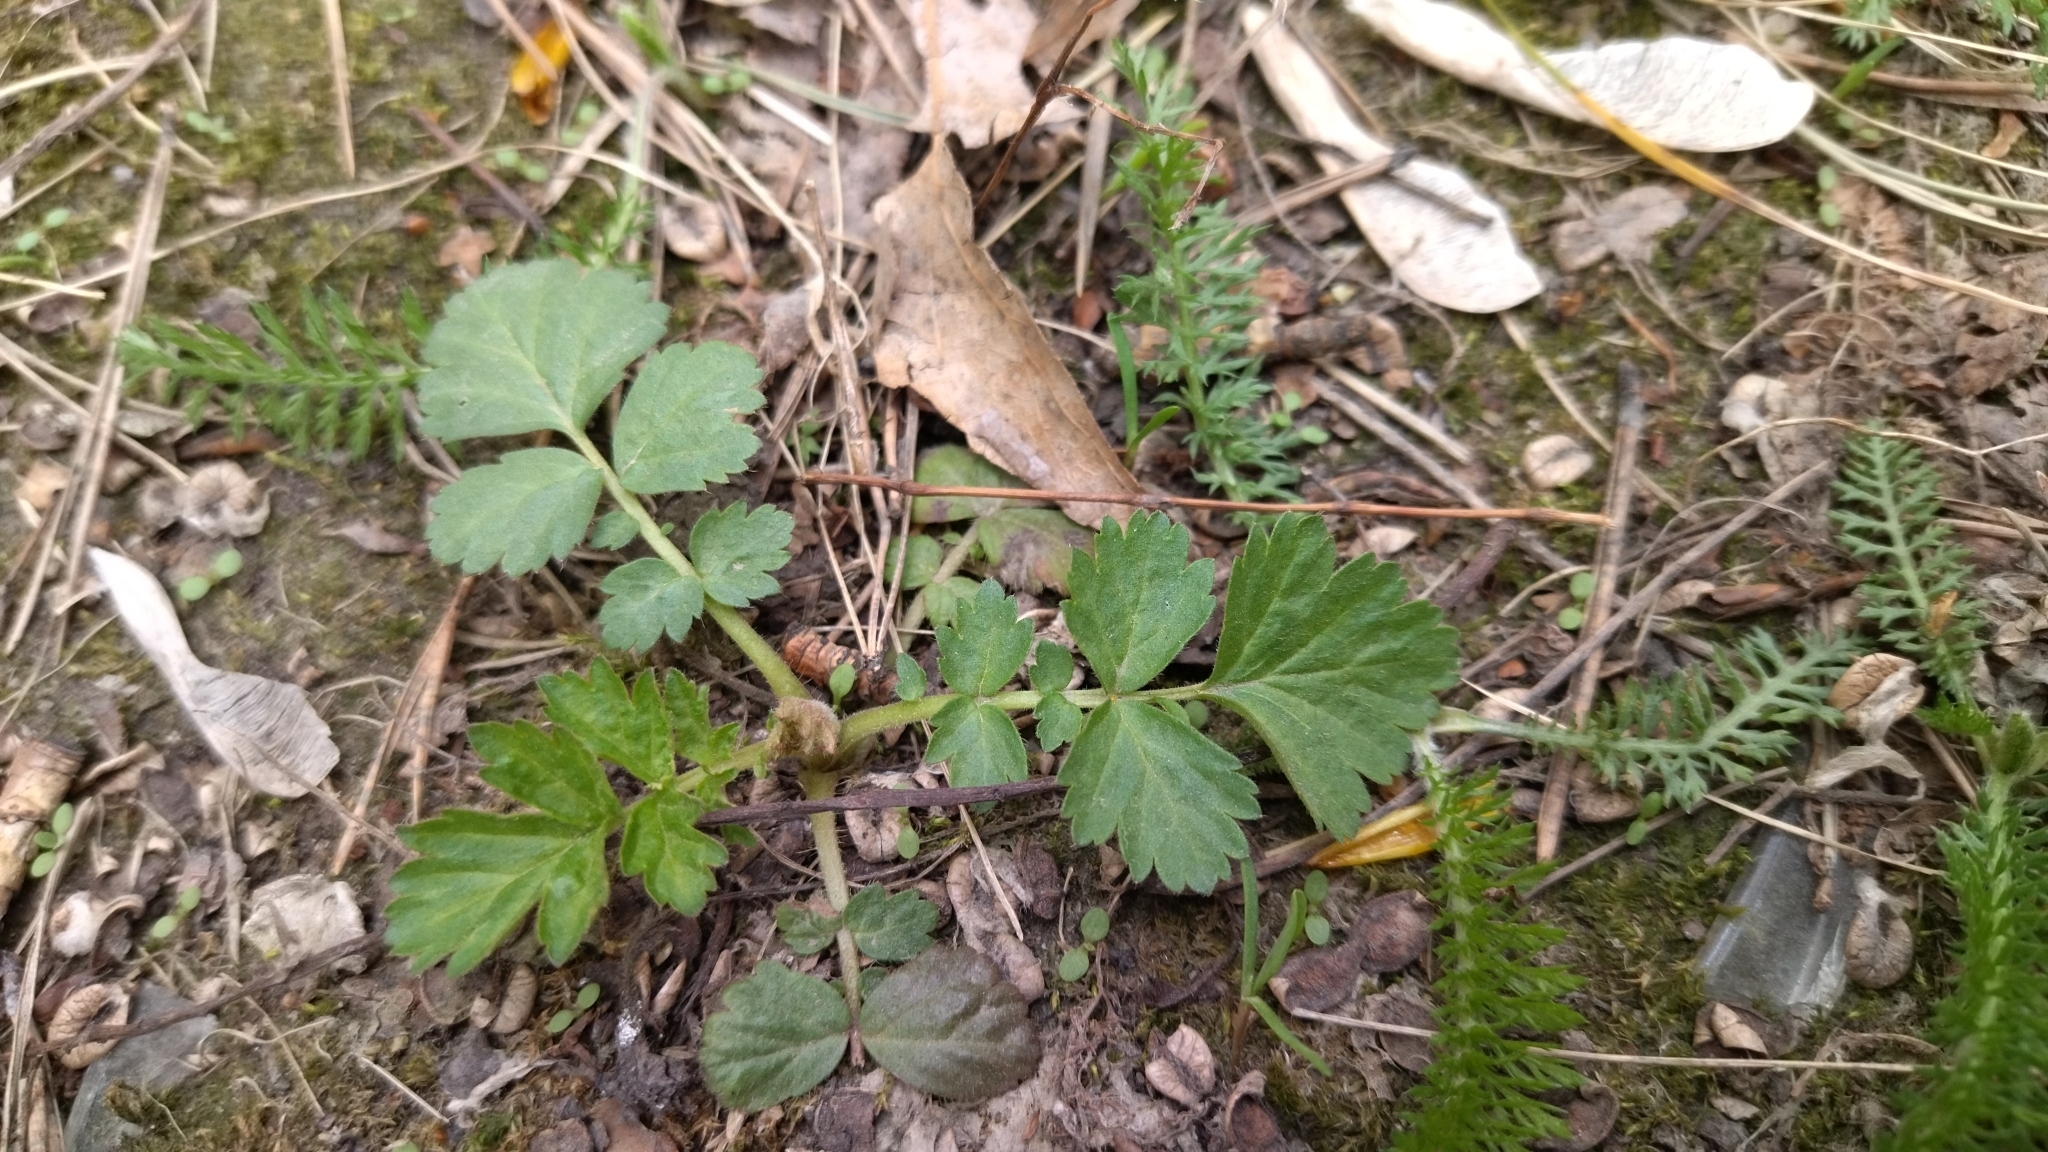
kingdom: Plantae
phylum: Tracheophyta
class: Magnoliopsida
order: Rosales
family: Rosaceae
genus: Geum
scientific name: Geum urbanum
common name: Wood avens
